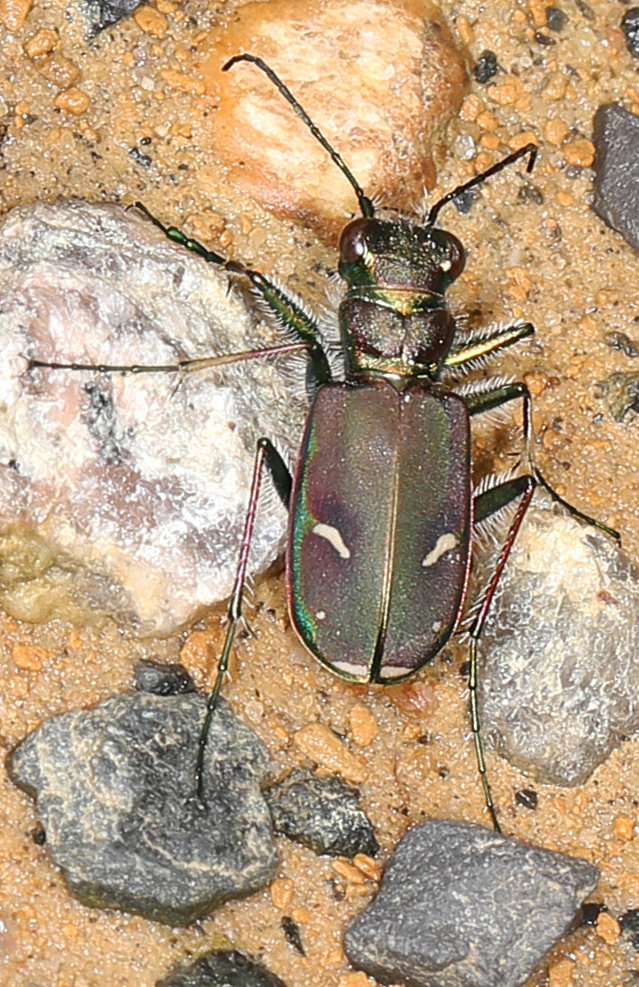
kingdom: Animalia
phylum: Arthropoda
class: Insecta
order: Coleoptera
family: Carabidae
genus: Cicindela
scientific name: Cicindela purpurea
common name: Cow path tiger beetle
